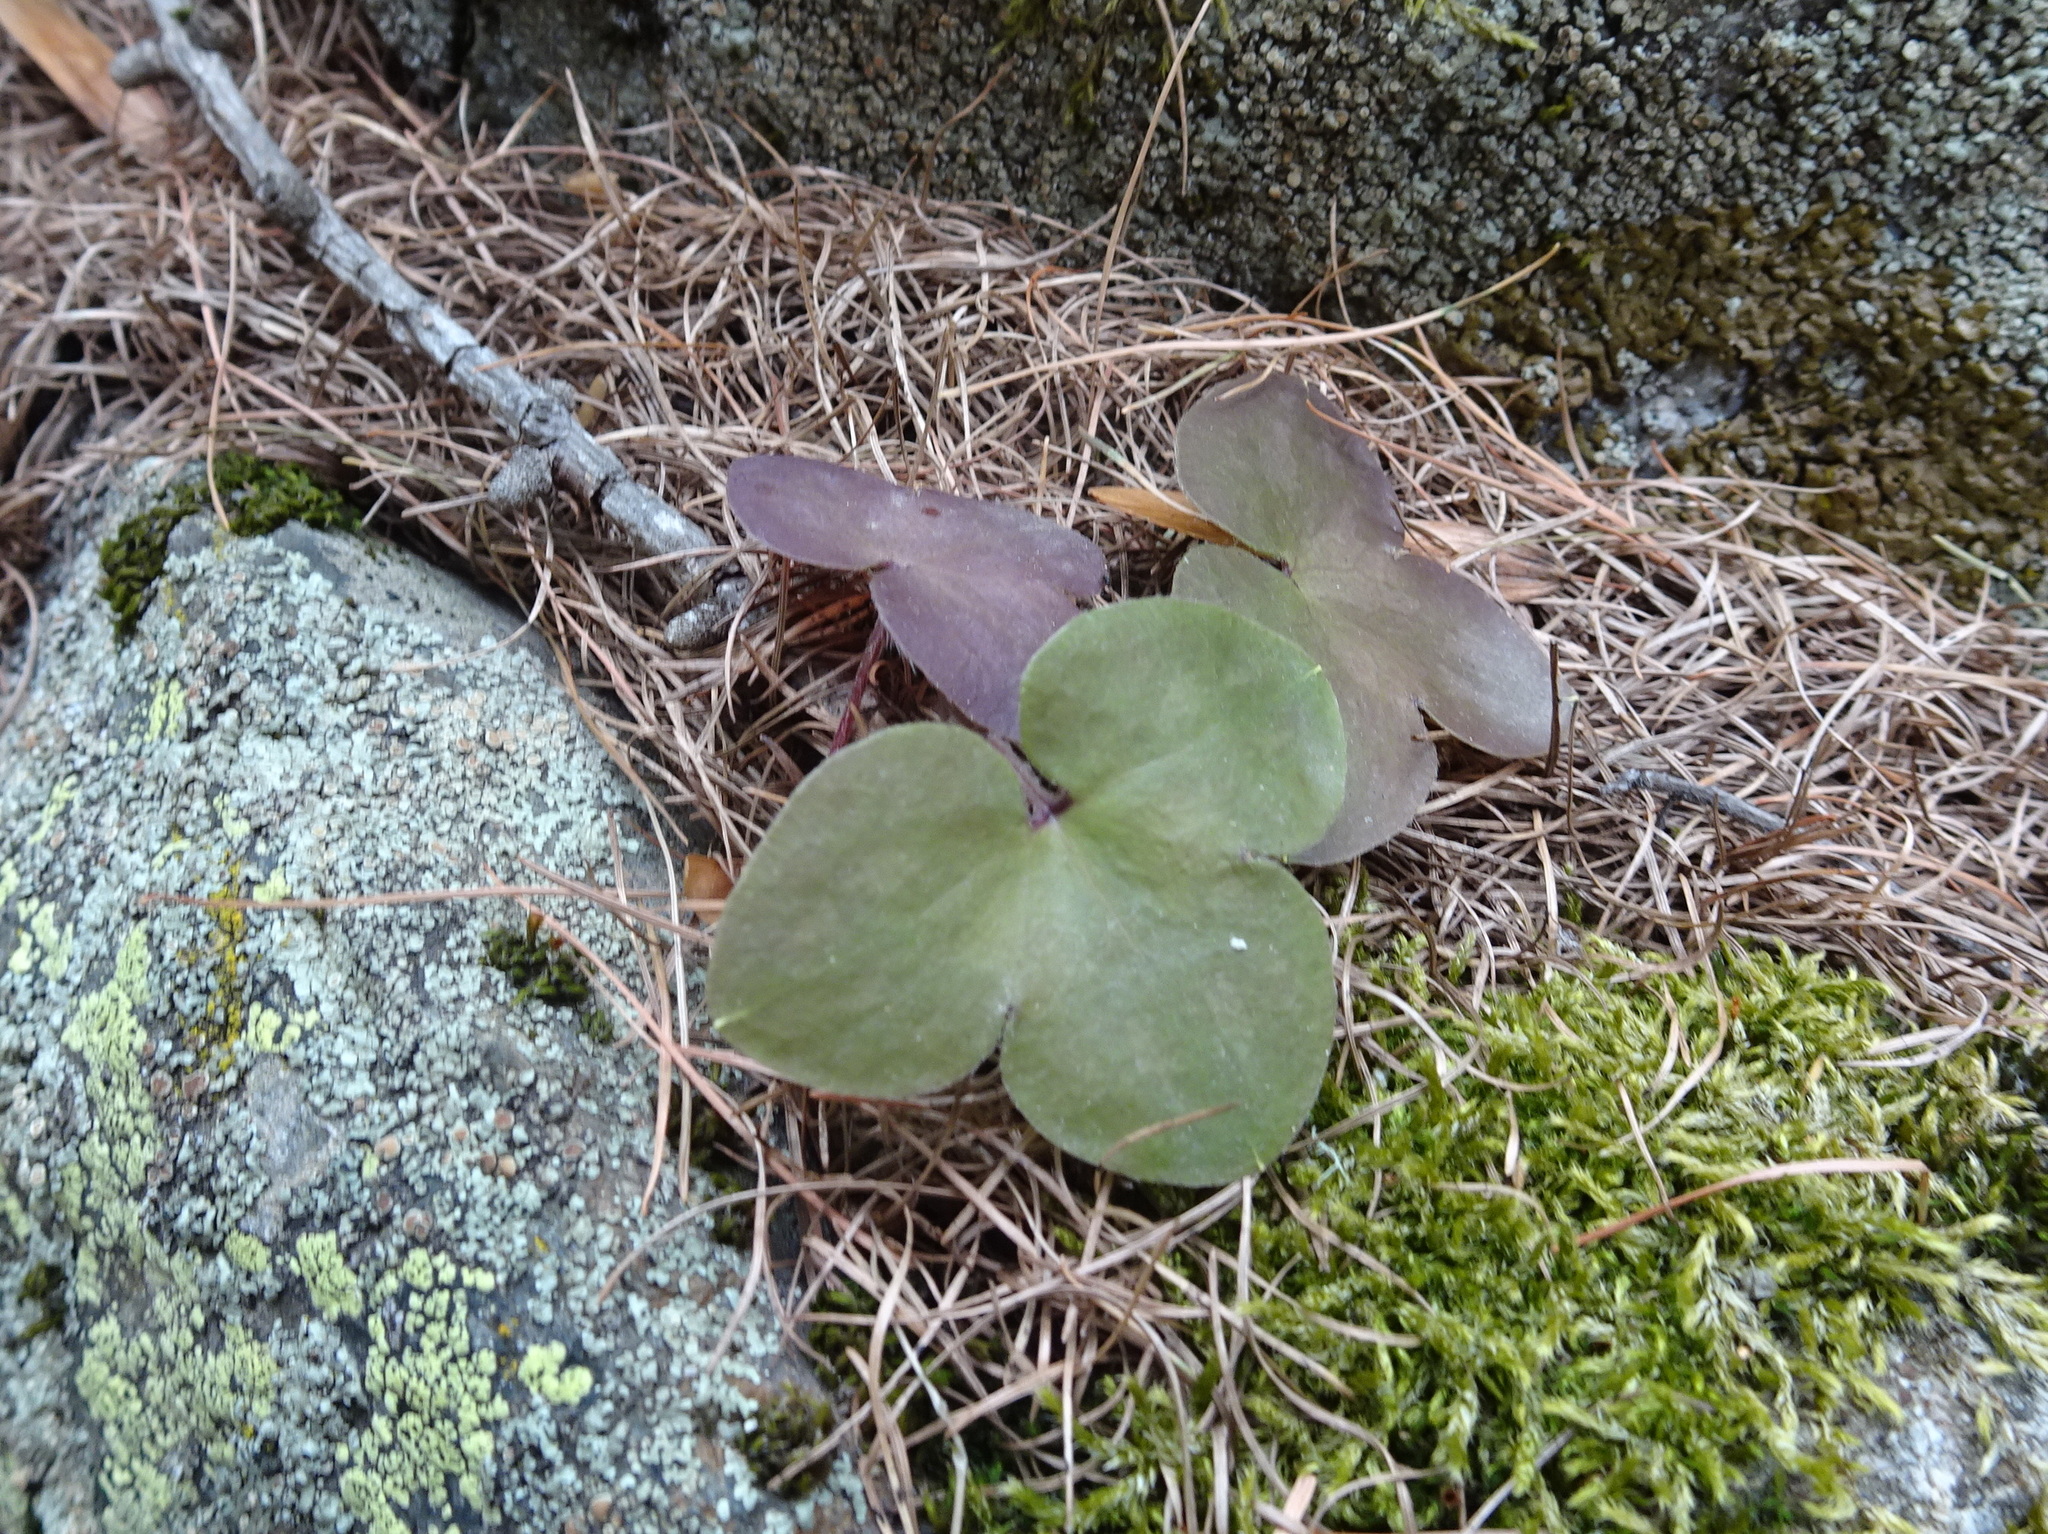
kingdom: Plantae
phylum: Tracheophyta
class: Magnoliopsida
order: Ranunculales
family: Ranunculaceae
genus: Hepatica
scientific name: Hepatica nobilis
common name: Liverleaf
